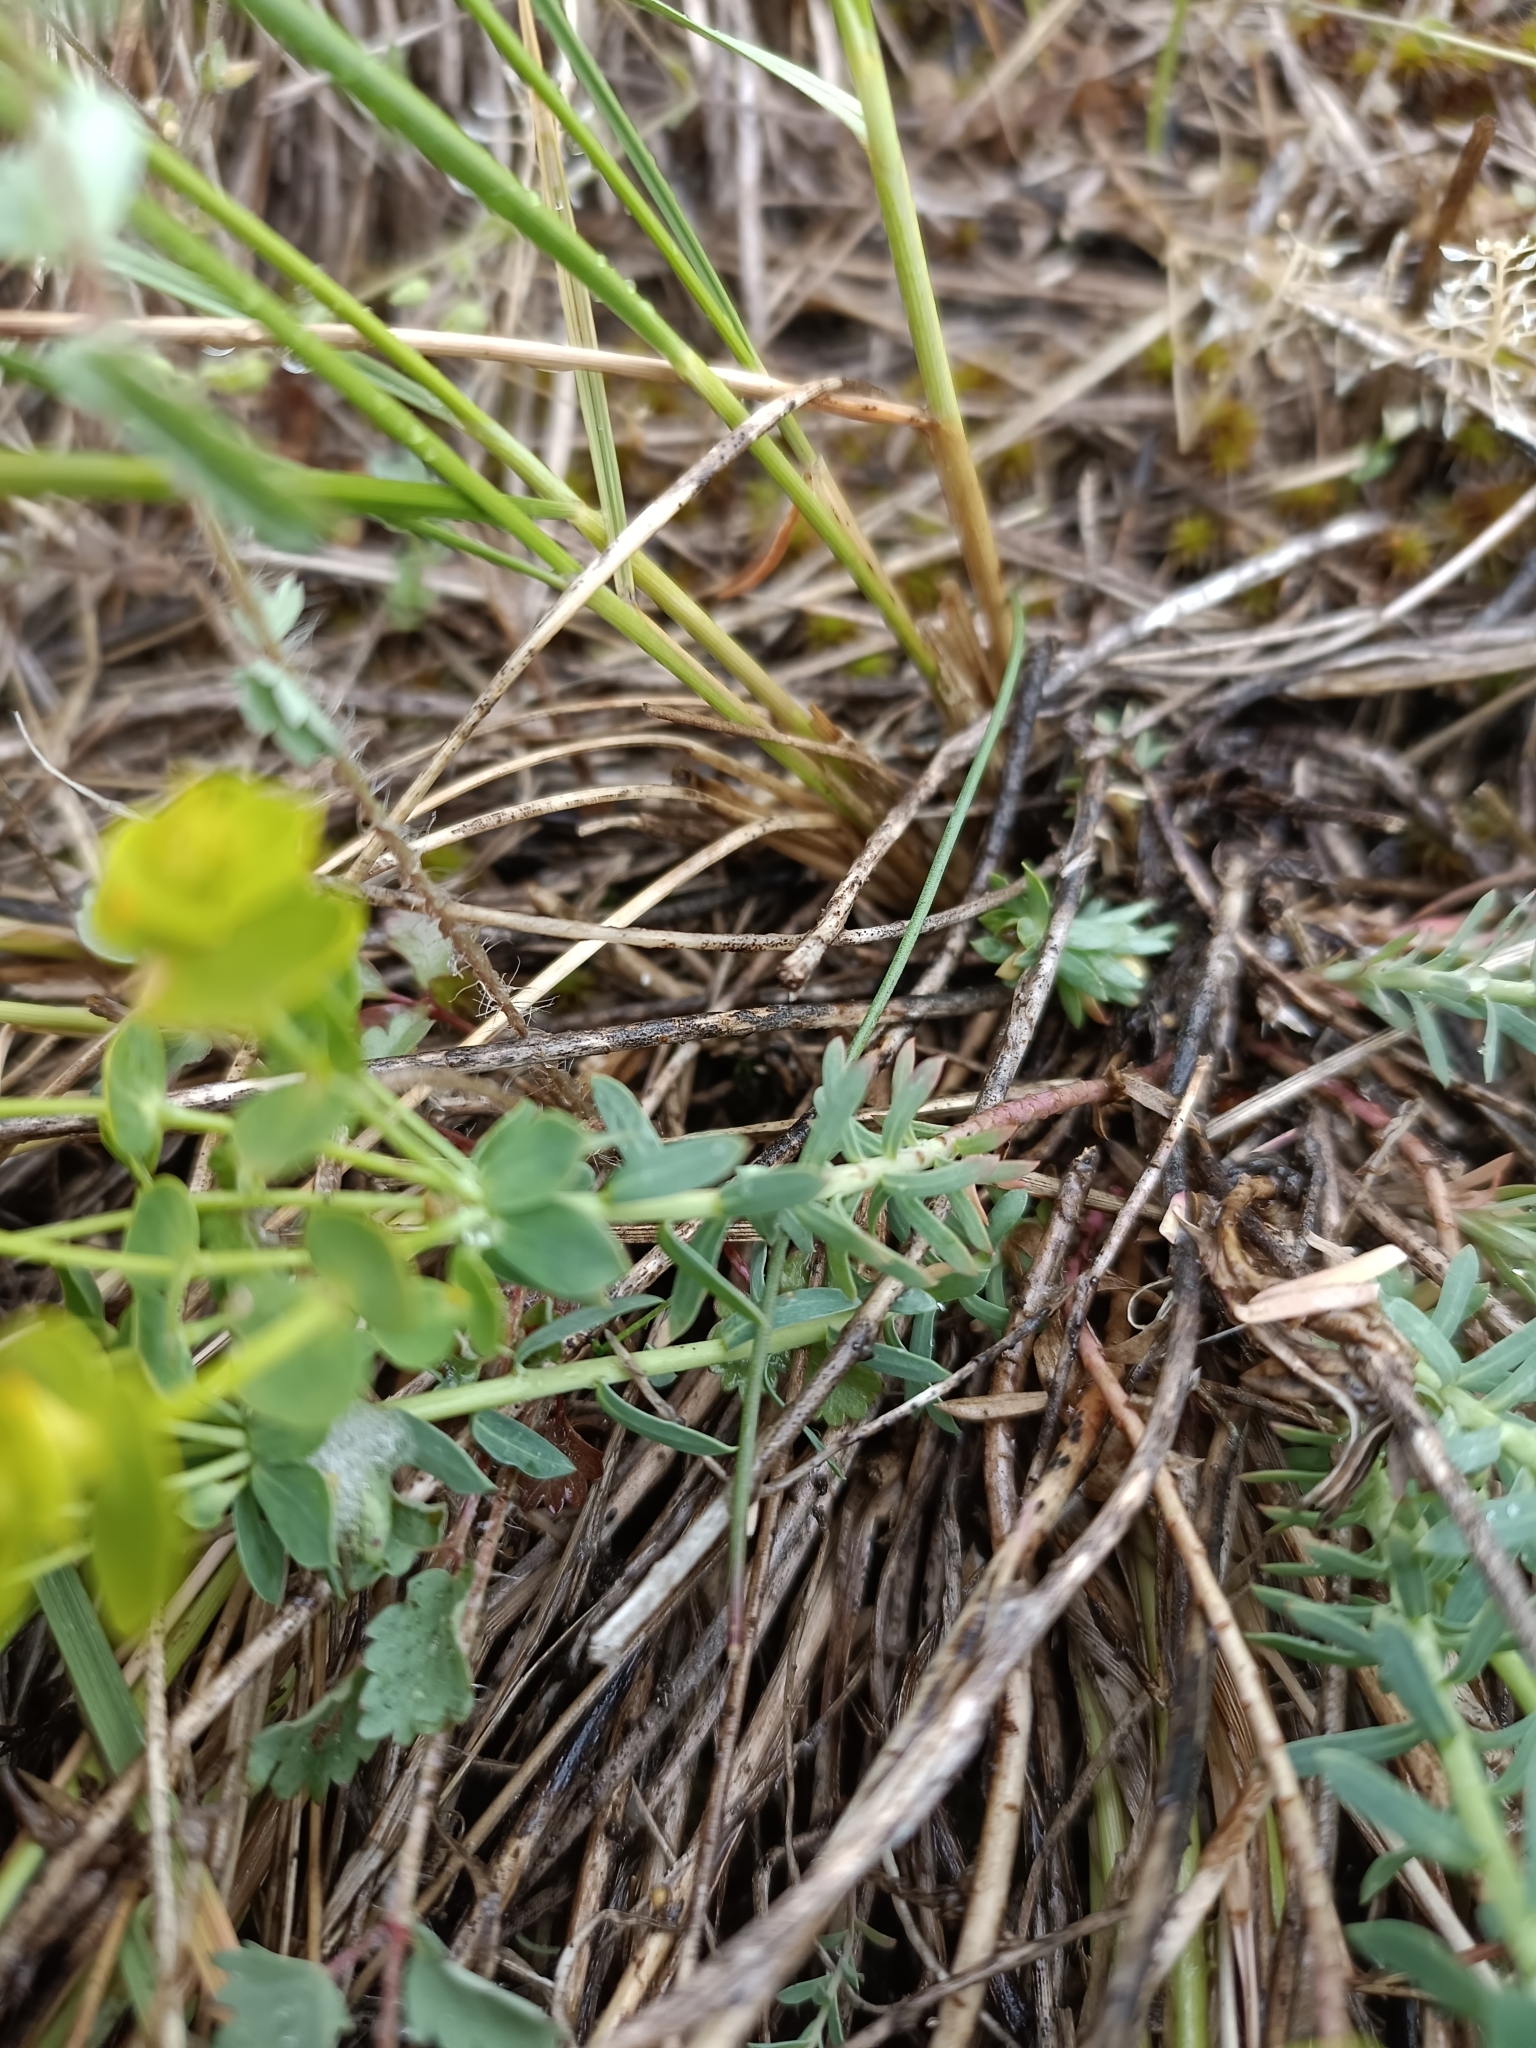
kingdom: Plantae
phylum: Tracheophyta
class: Magnoliopsida
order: Malpighiales
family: Euphorbiaceae
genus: Euphorbia
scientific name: Euphorbia seguieriana
